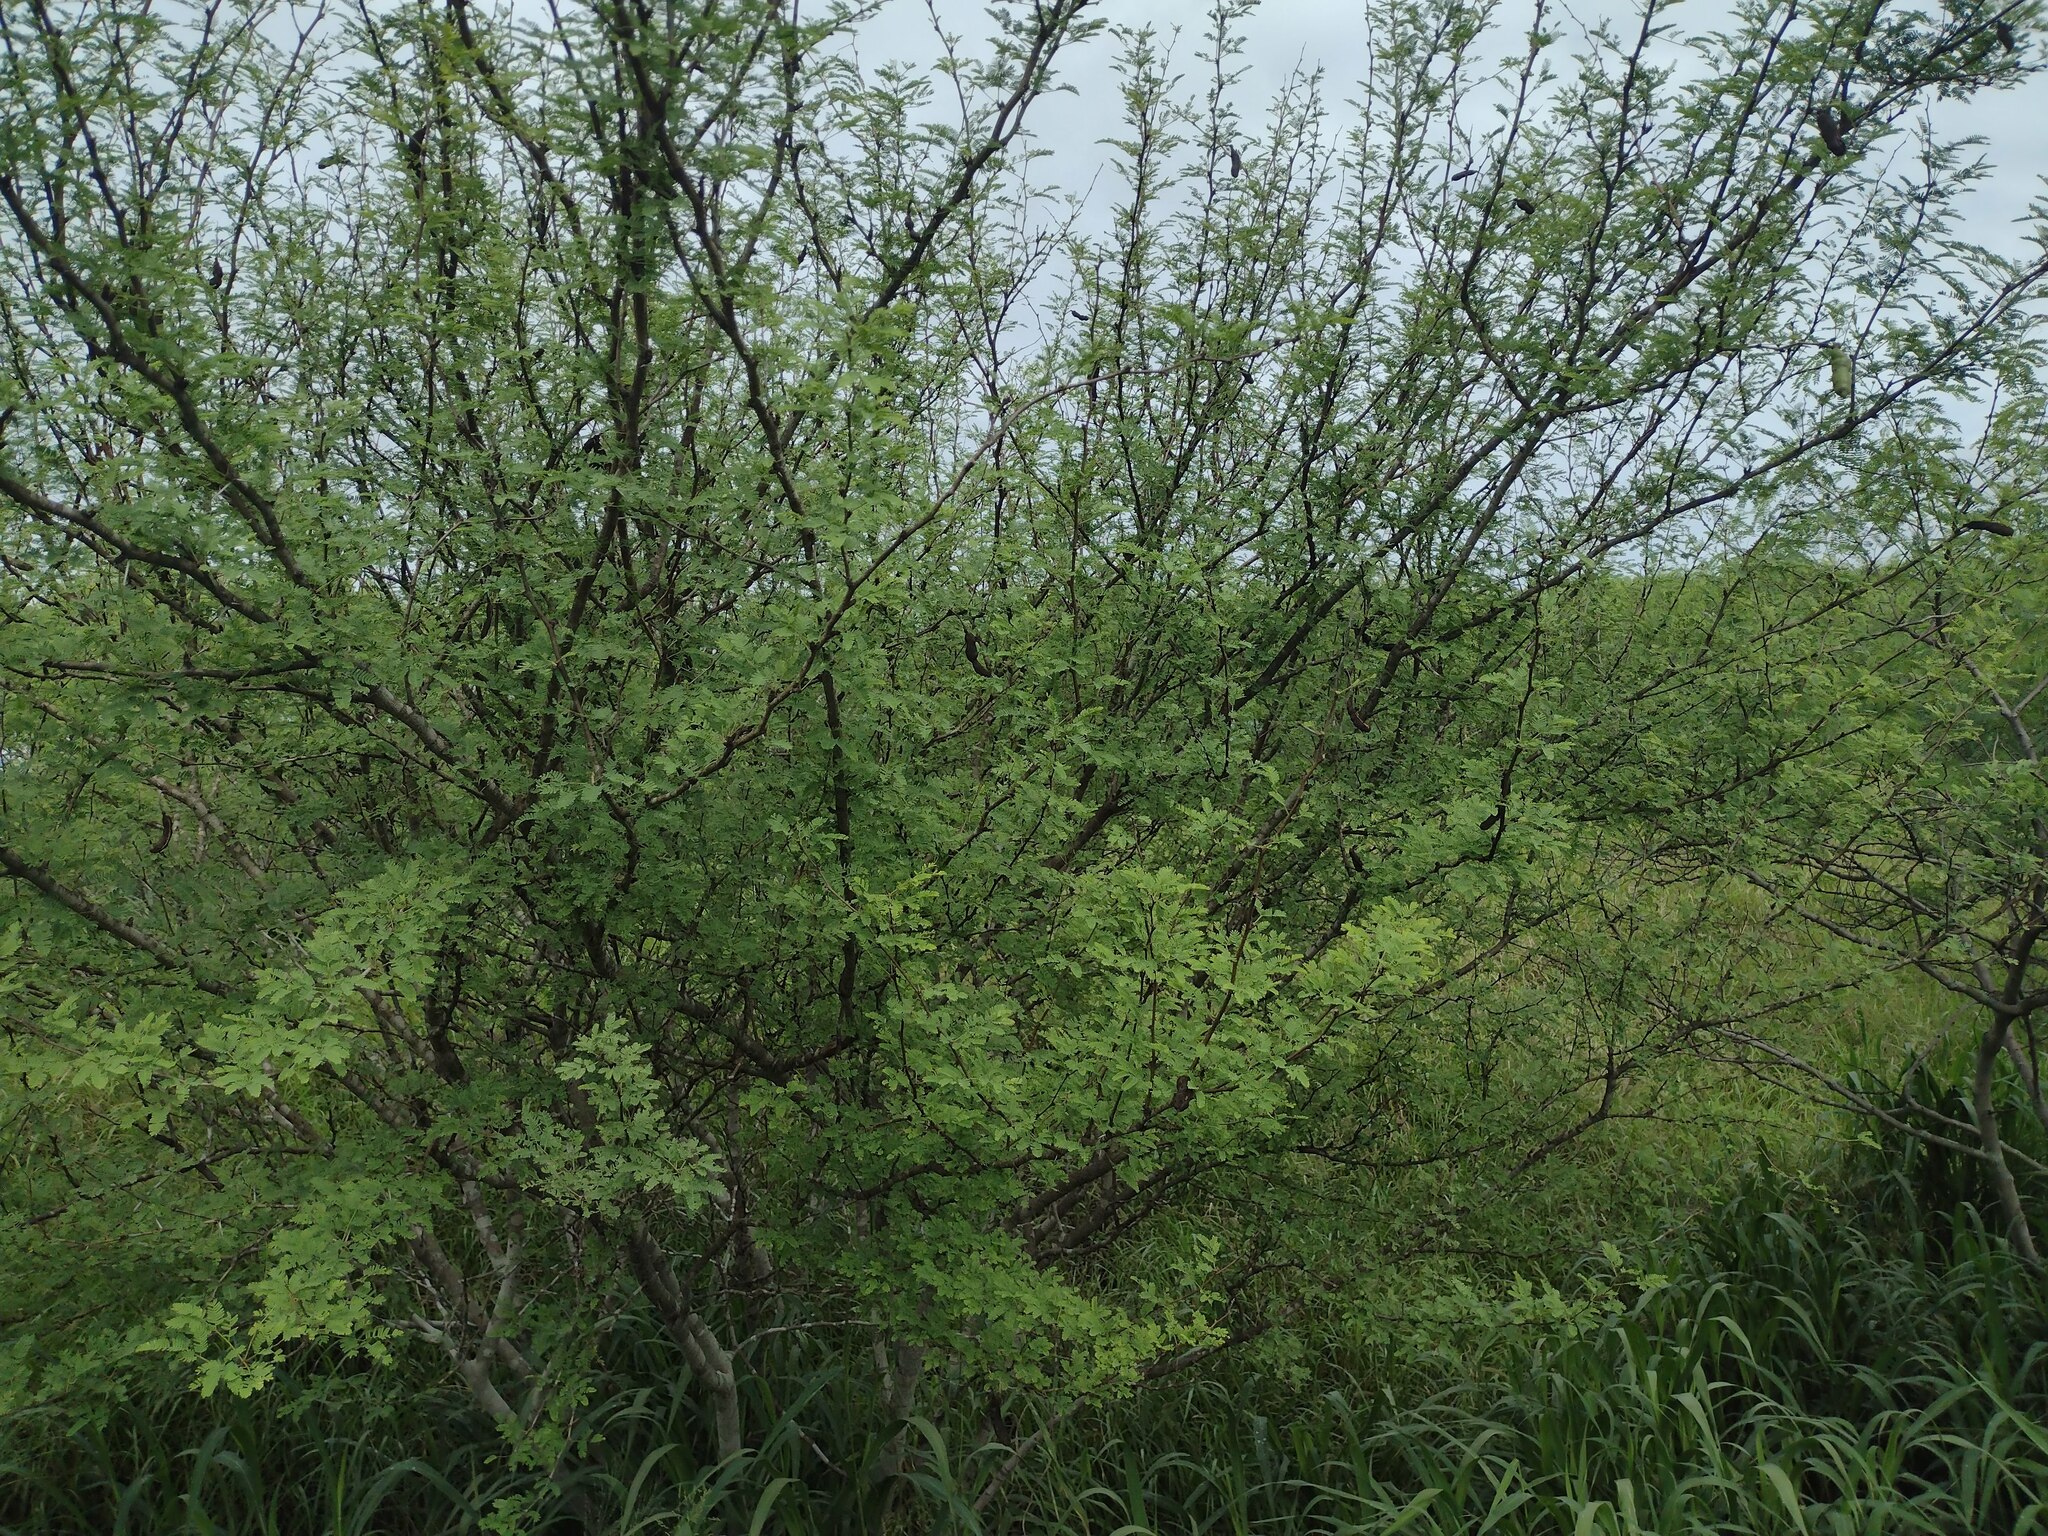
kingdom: Plantae
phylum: Tracheophyta
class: Magnoliopsida
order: Fabales
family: Fabaceae
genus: Vachellia
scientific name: Vachellia farnesiana
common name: Sweet acacia
